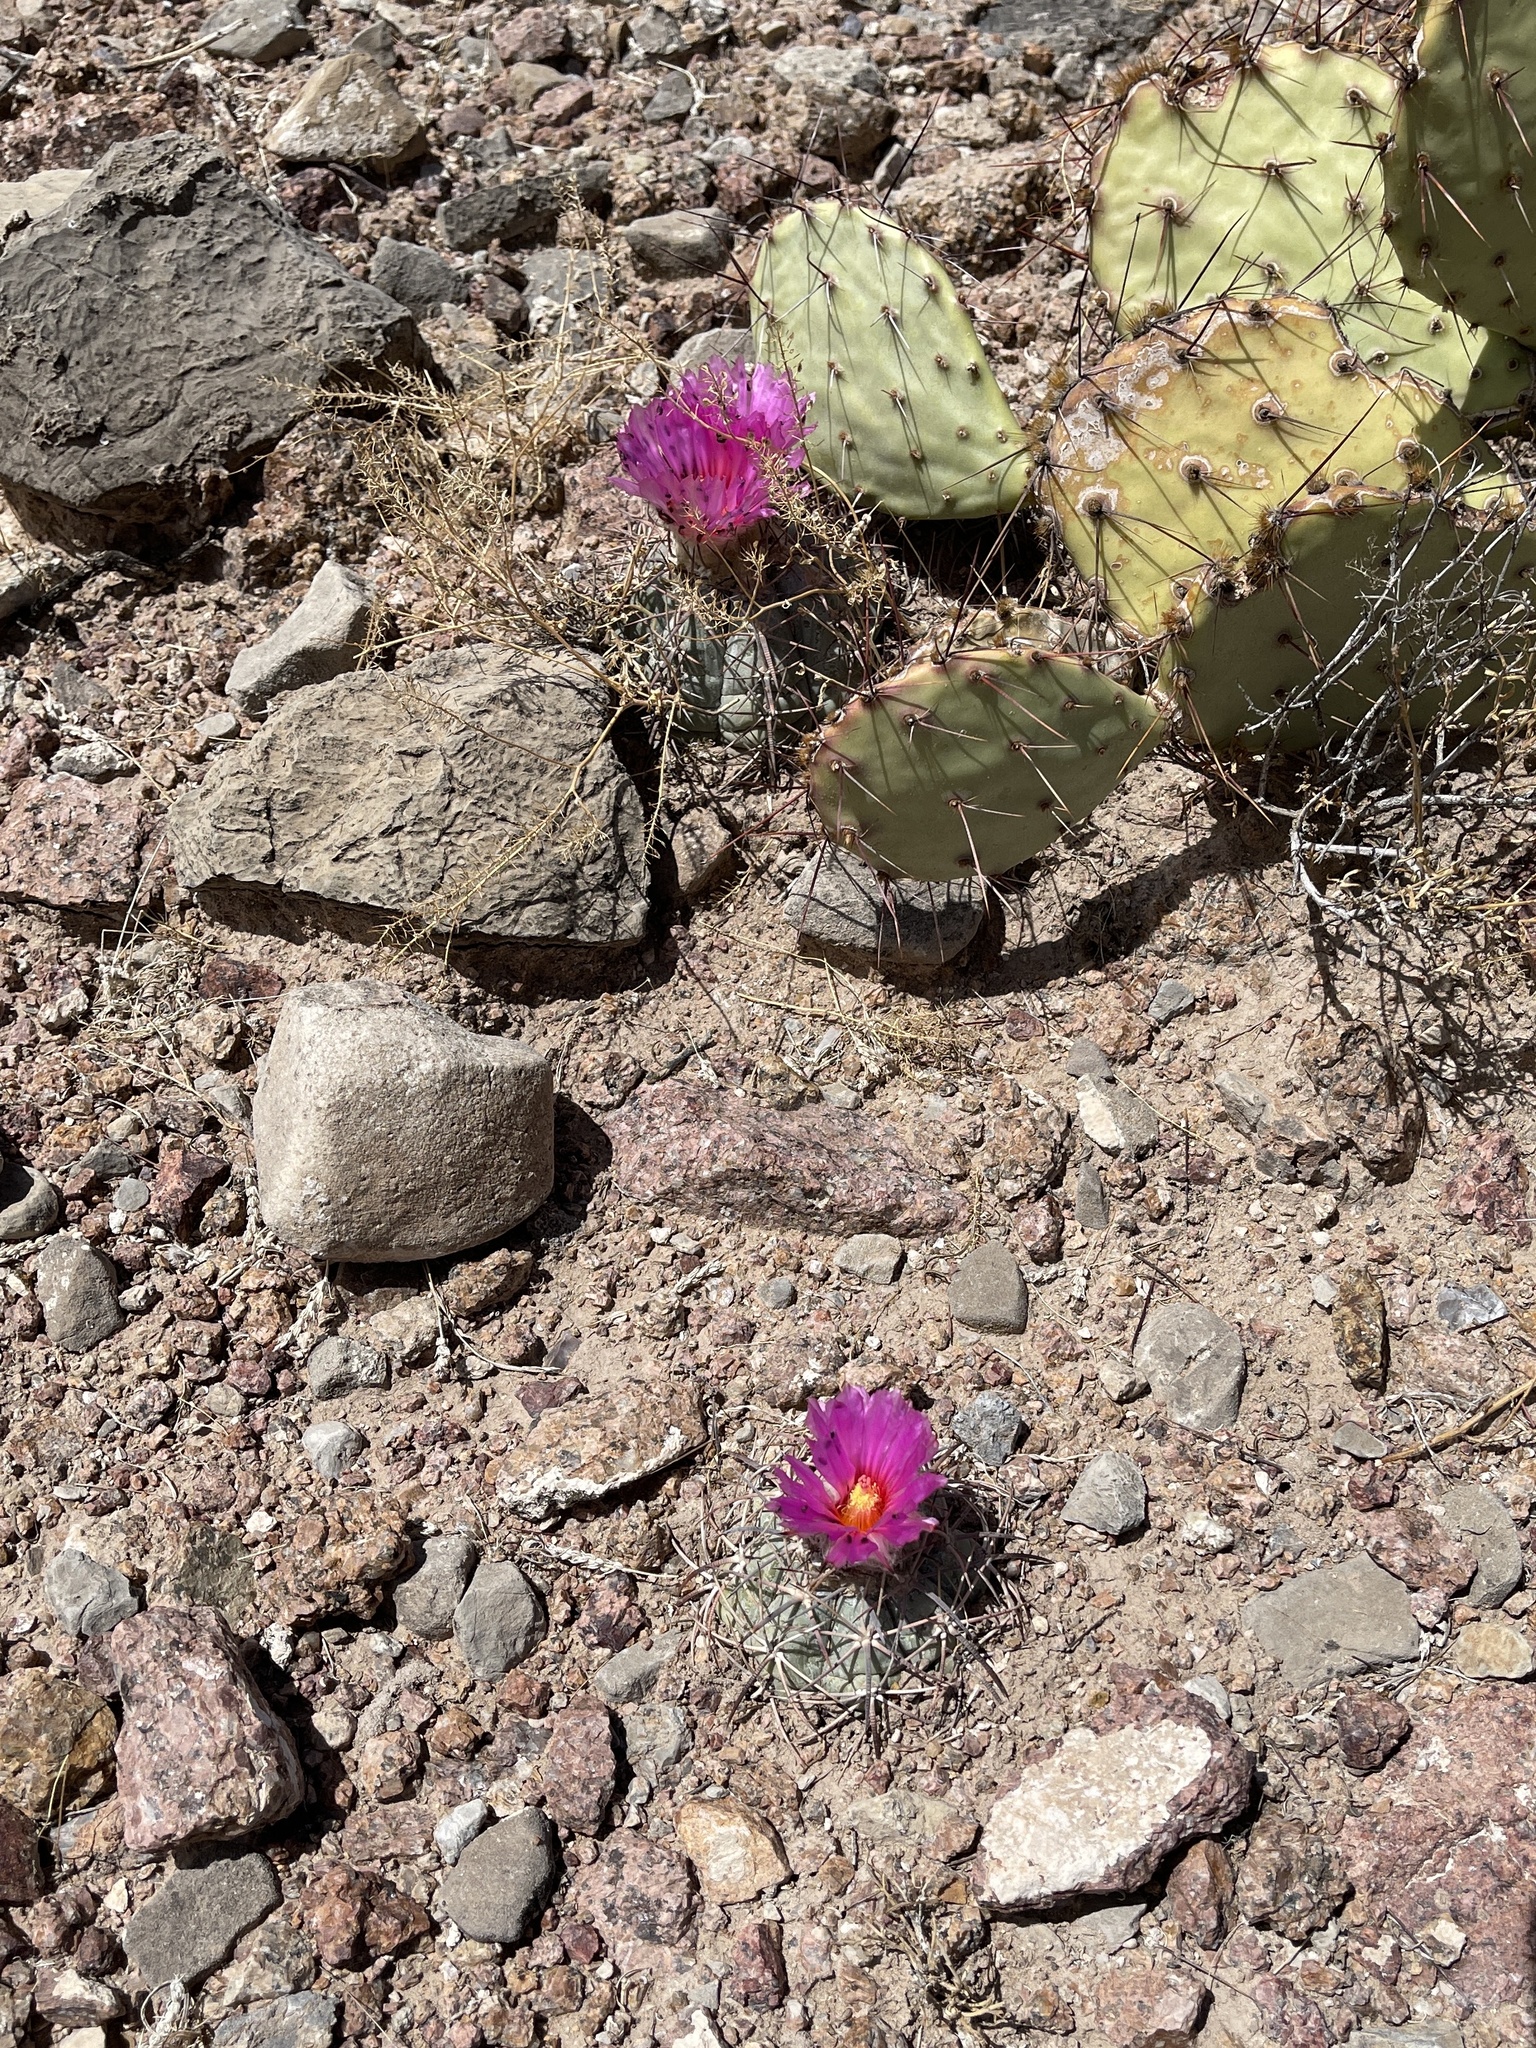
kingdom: Plantae
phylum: Tracheophyta
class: Magnoliopsida
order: Caryophyllales
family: Cactaceae
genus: Echinocactus
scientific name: Echinocactus horizonthalonius
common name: Devilshead
